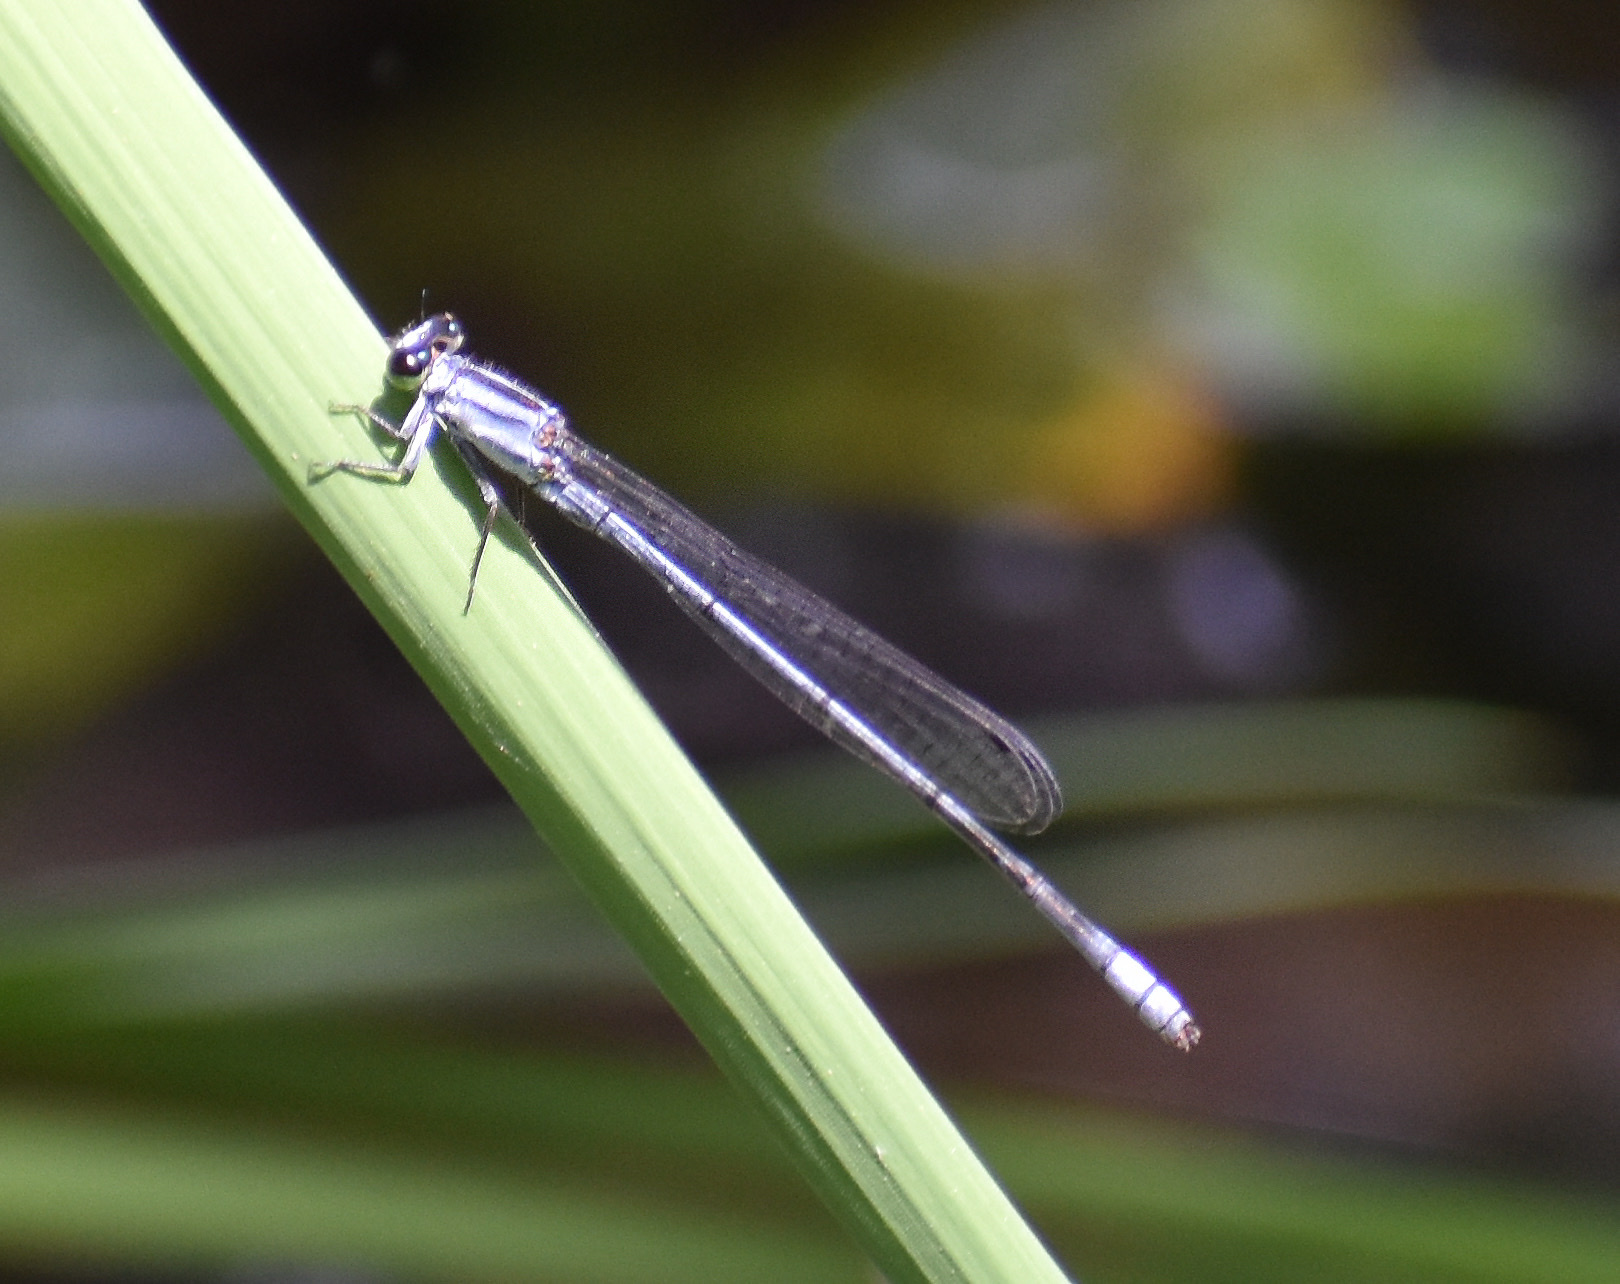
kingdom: Animalia
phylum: Arthropoda
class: Insecta
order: Odonata
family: Coenagrionidae
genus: Pseudagrion
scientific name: Pseudagrion kersteni
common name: Powder-faced sprite
